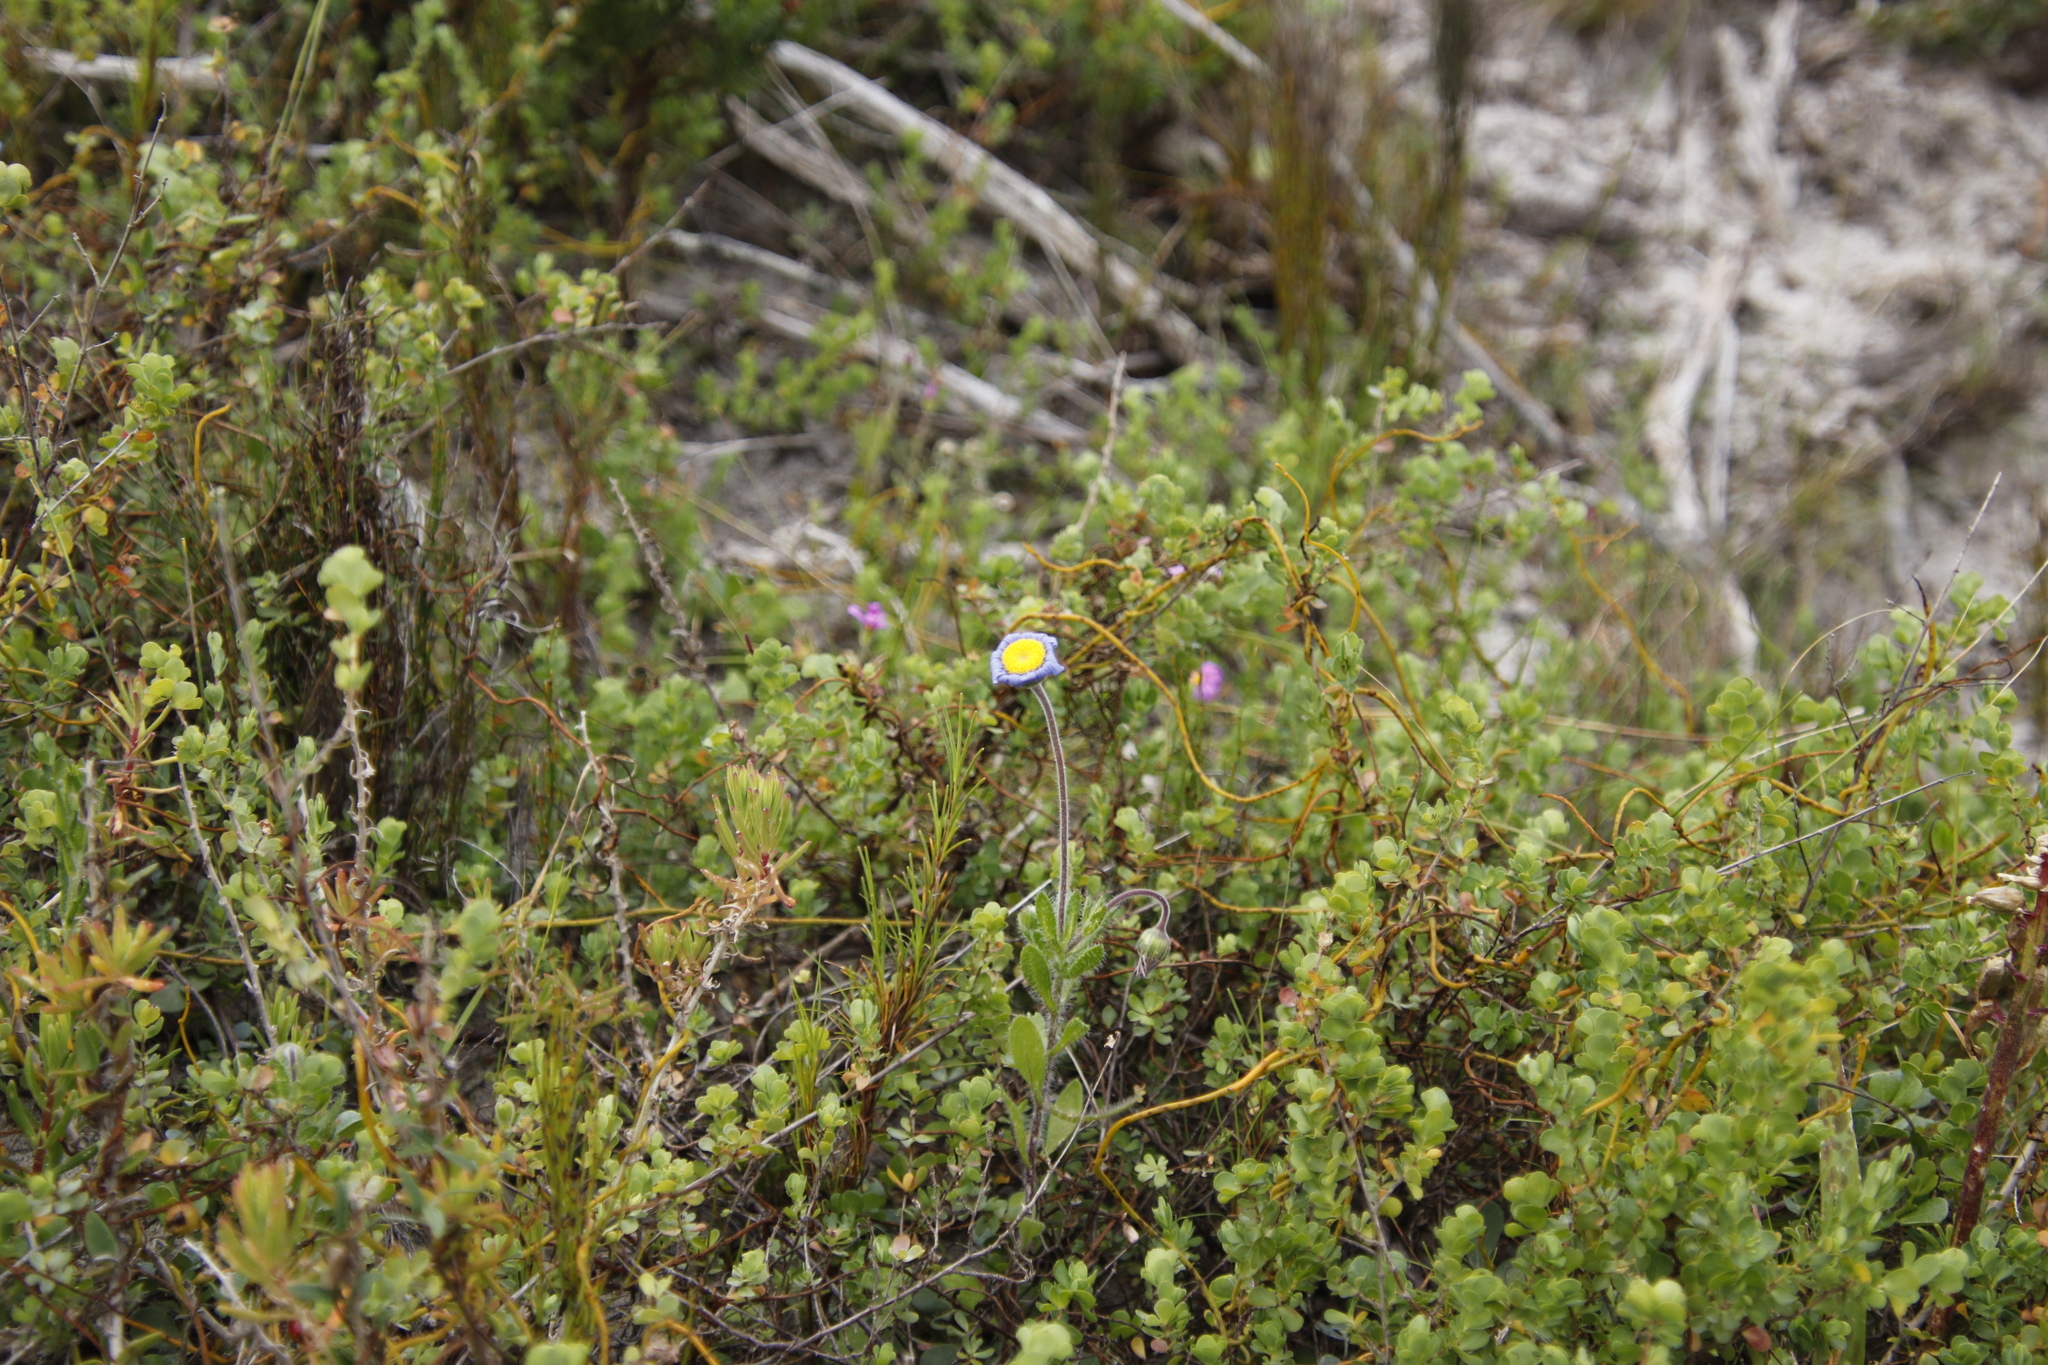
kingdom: Plantae
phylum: Tracheophyta
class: Magnoliopsida
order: Asterales
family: Asteraceae
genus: Felicia
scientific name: Felicia amoena
